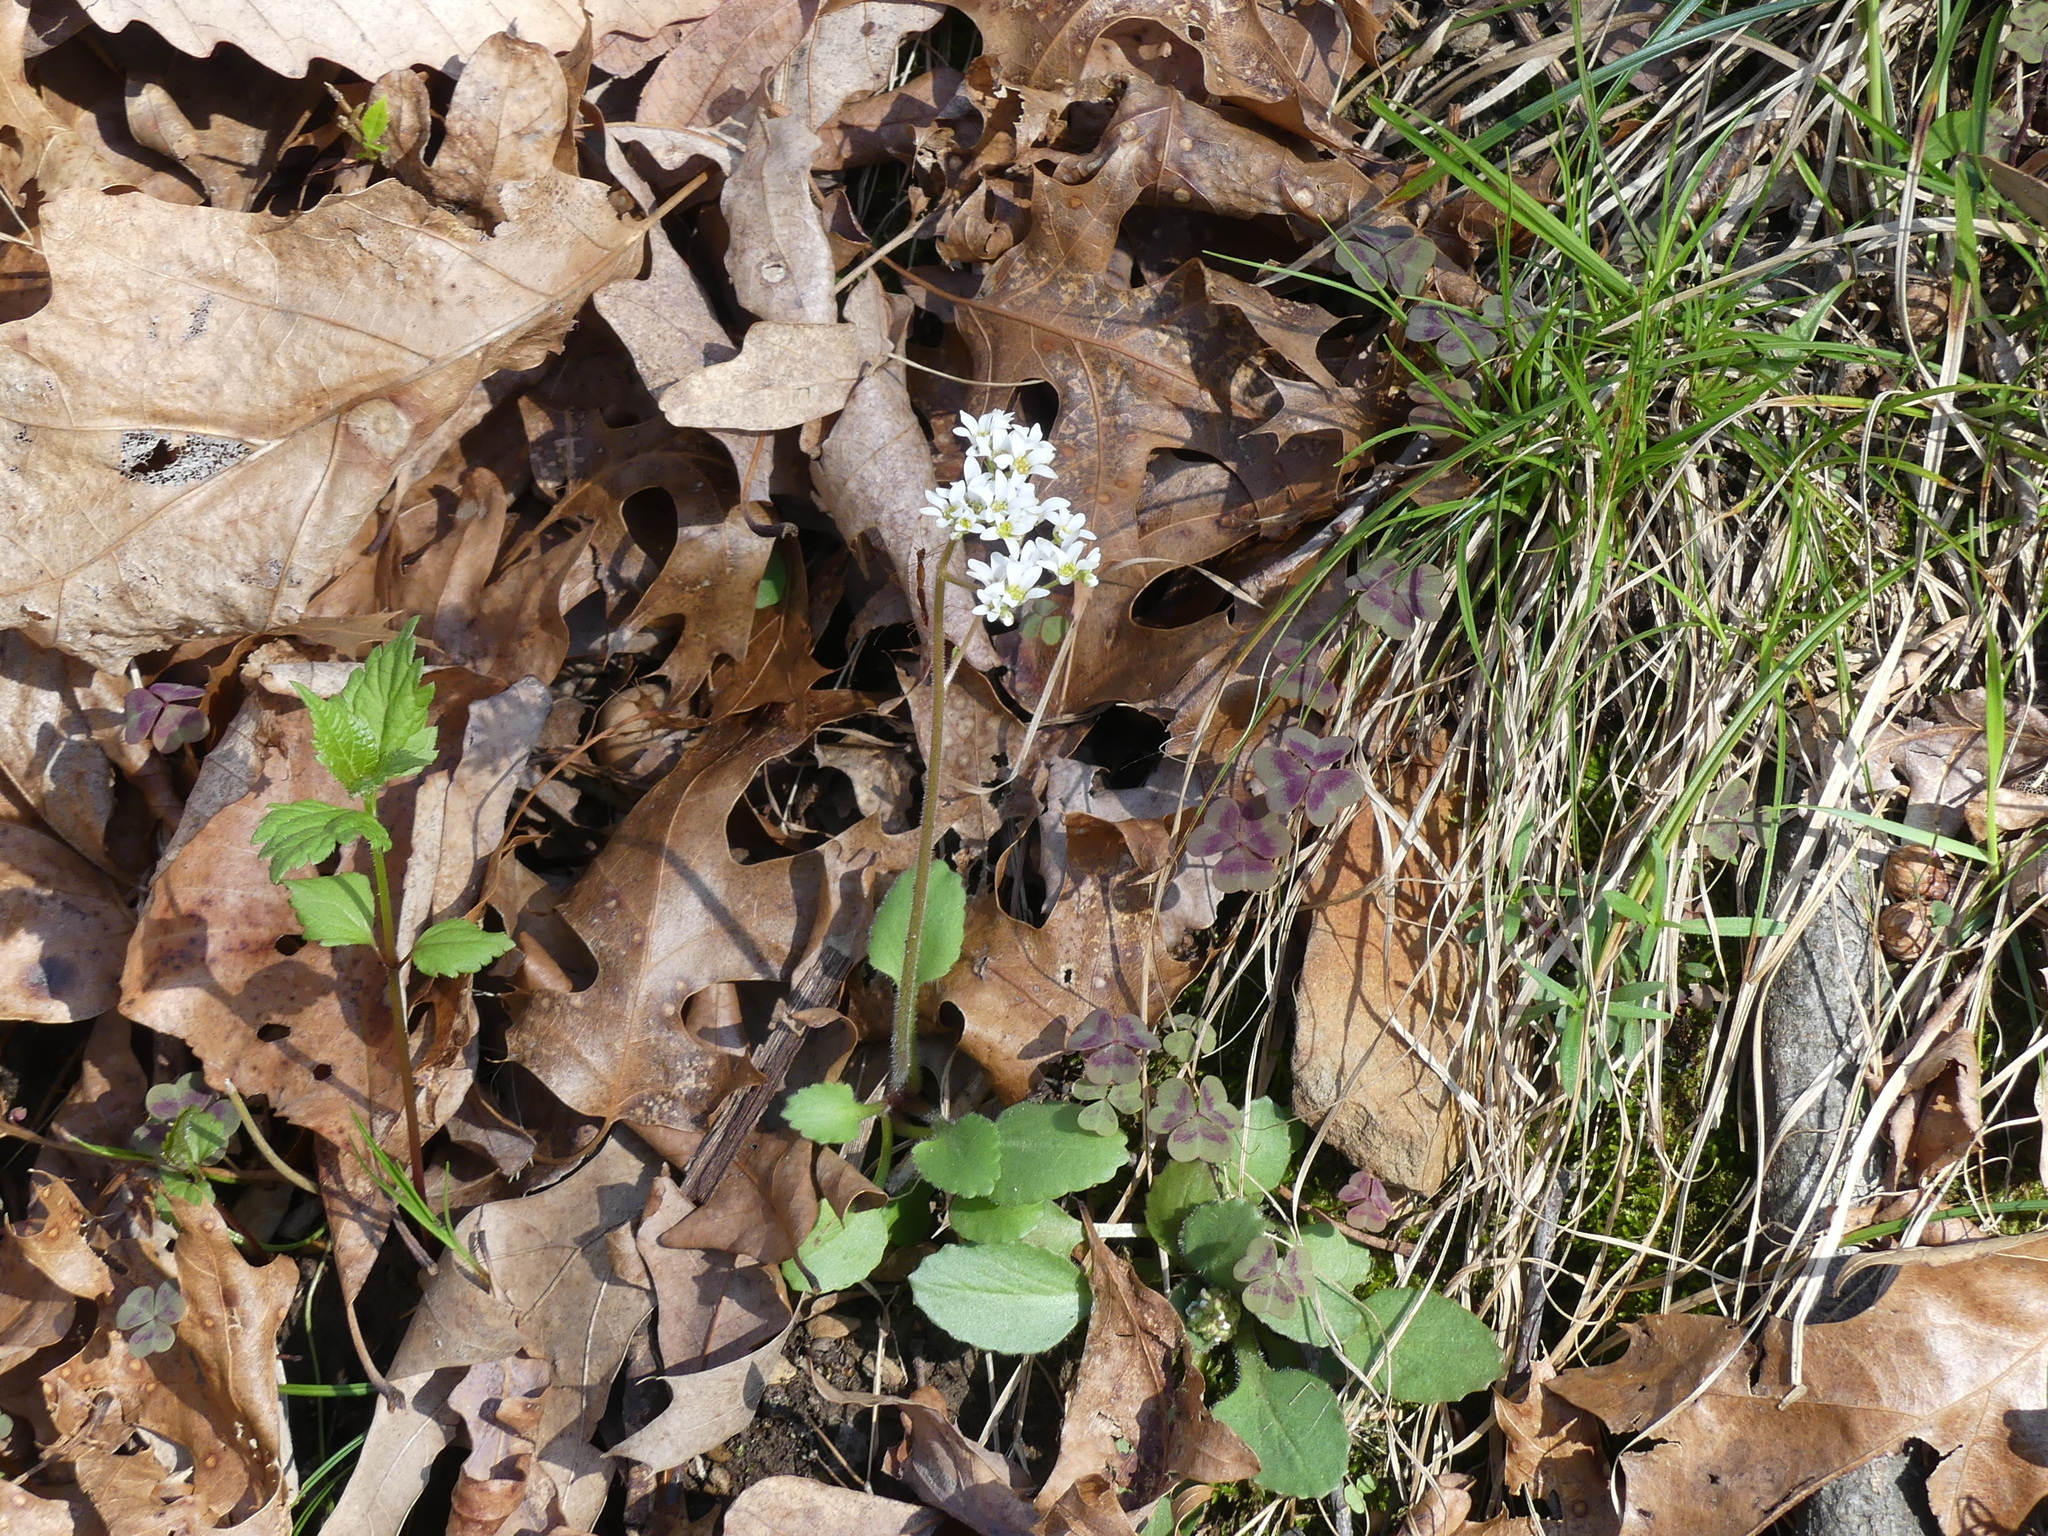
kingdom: Plantae
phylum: Tracheophyta
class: Magnoliopsida
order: Saxifragales
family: Saxifragaceae
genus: Micranthes
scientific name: Micranthes virginiensis
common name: Early saxifrage
